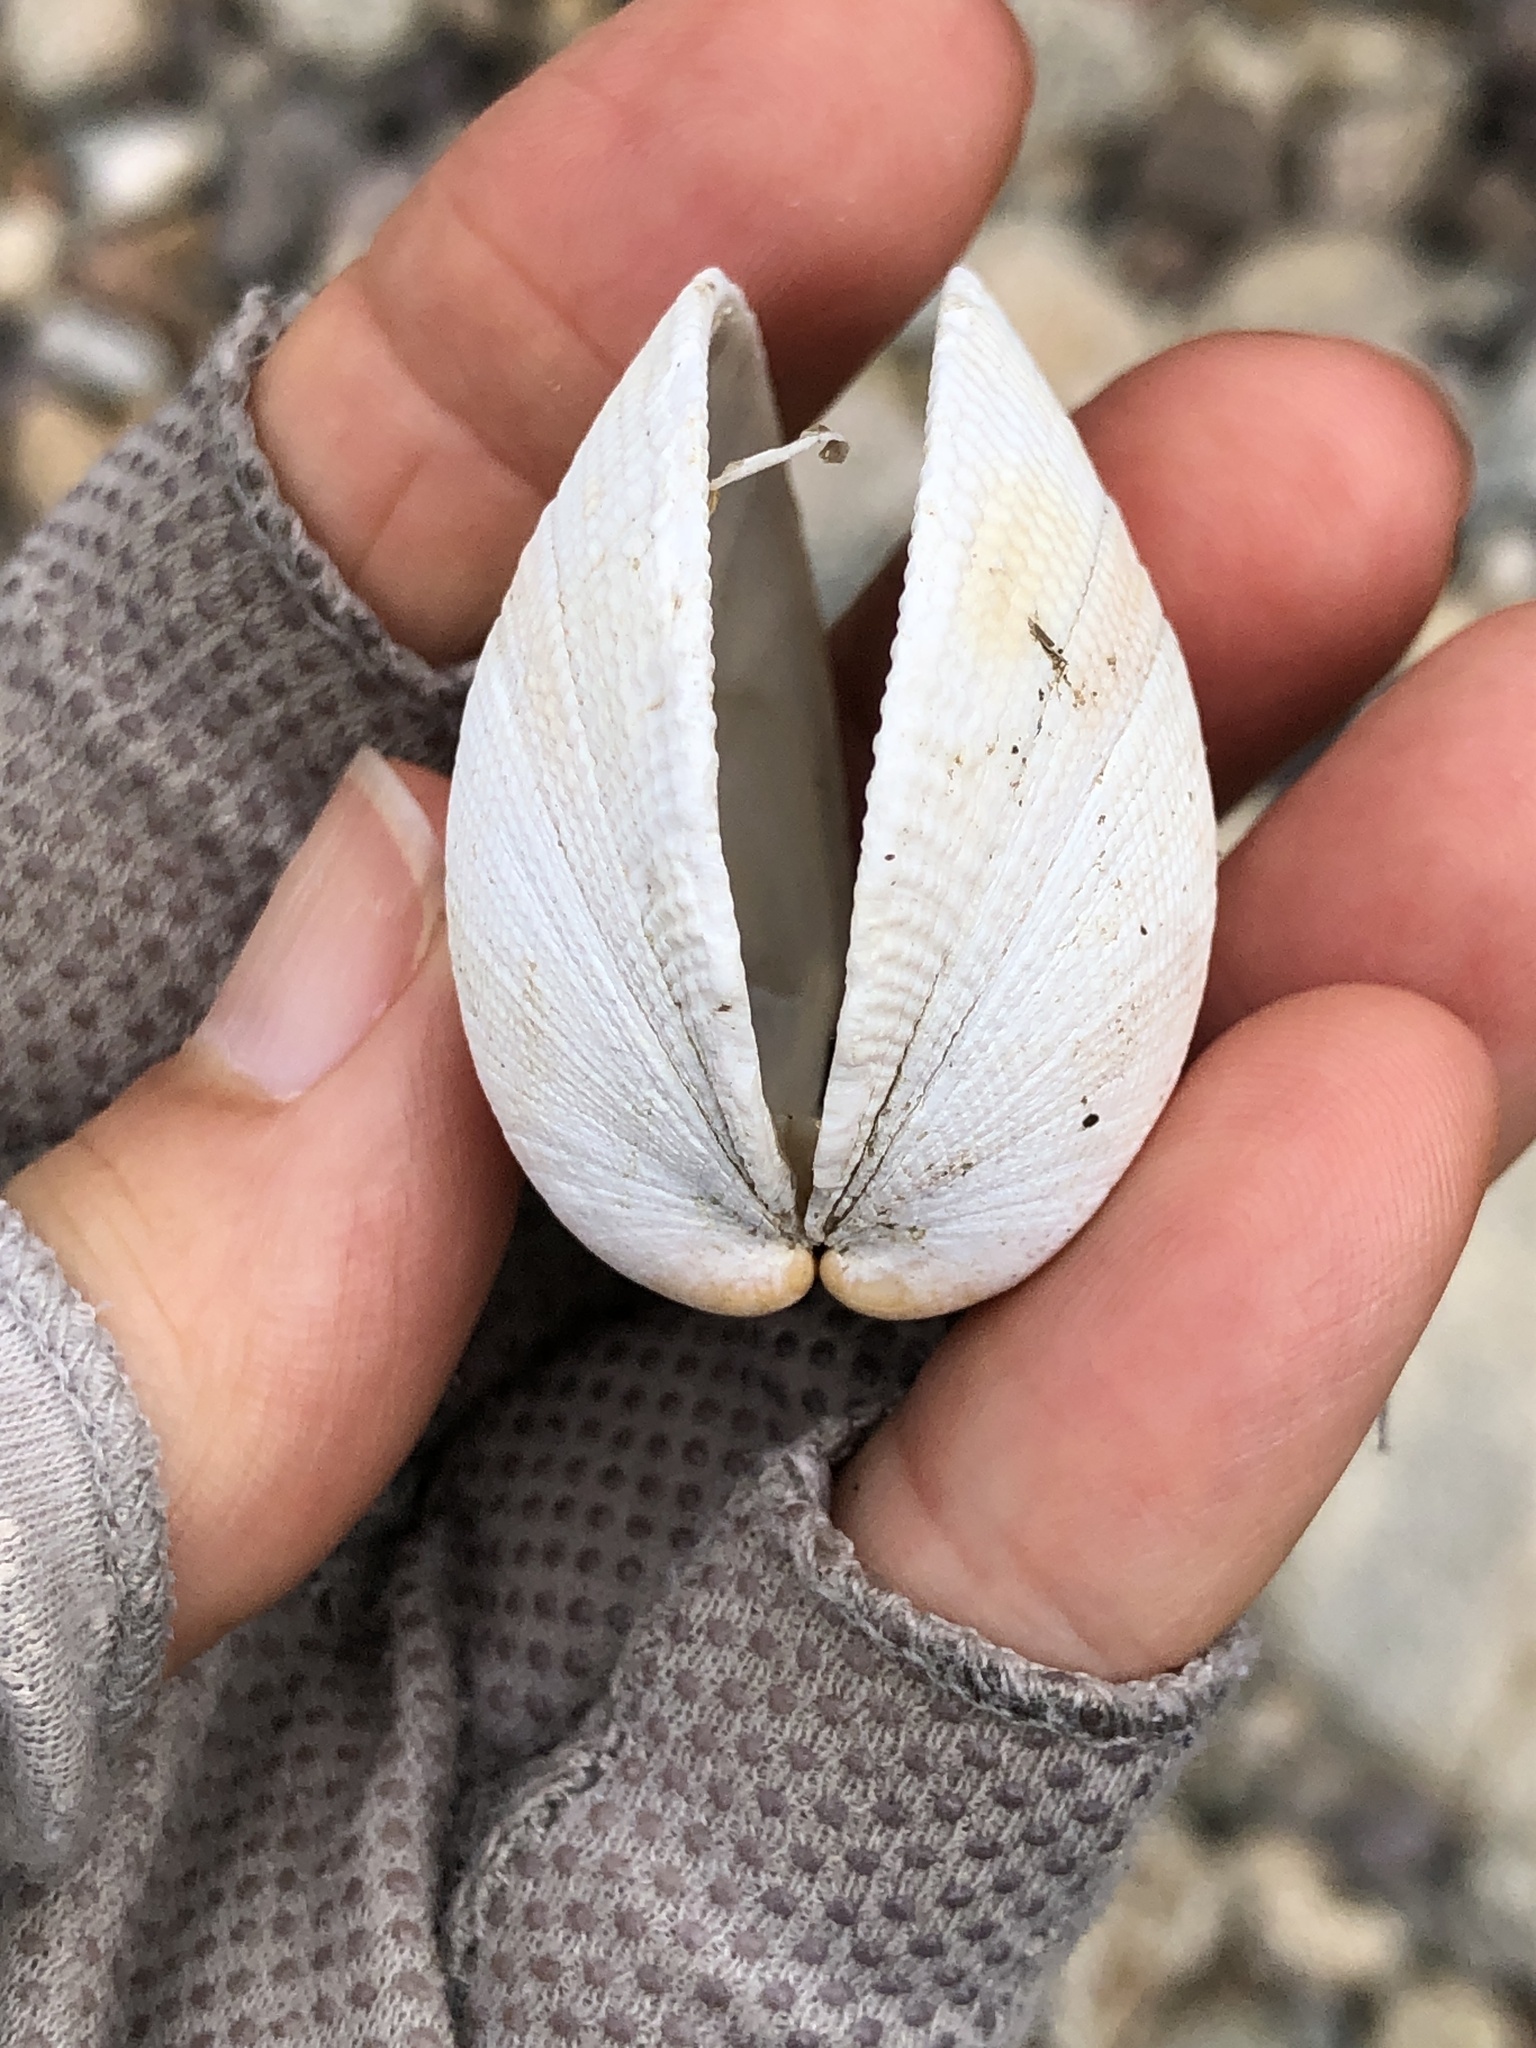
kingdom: Animalia
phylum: Mollusca
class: Bivalvia
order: Venerida
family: Veneridae
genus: Leukoma
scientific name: Leukoma staminea
